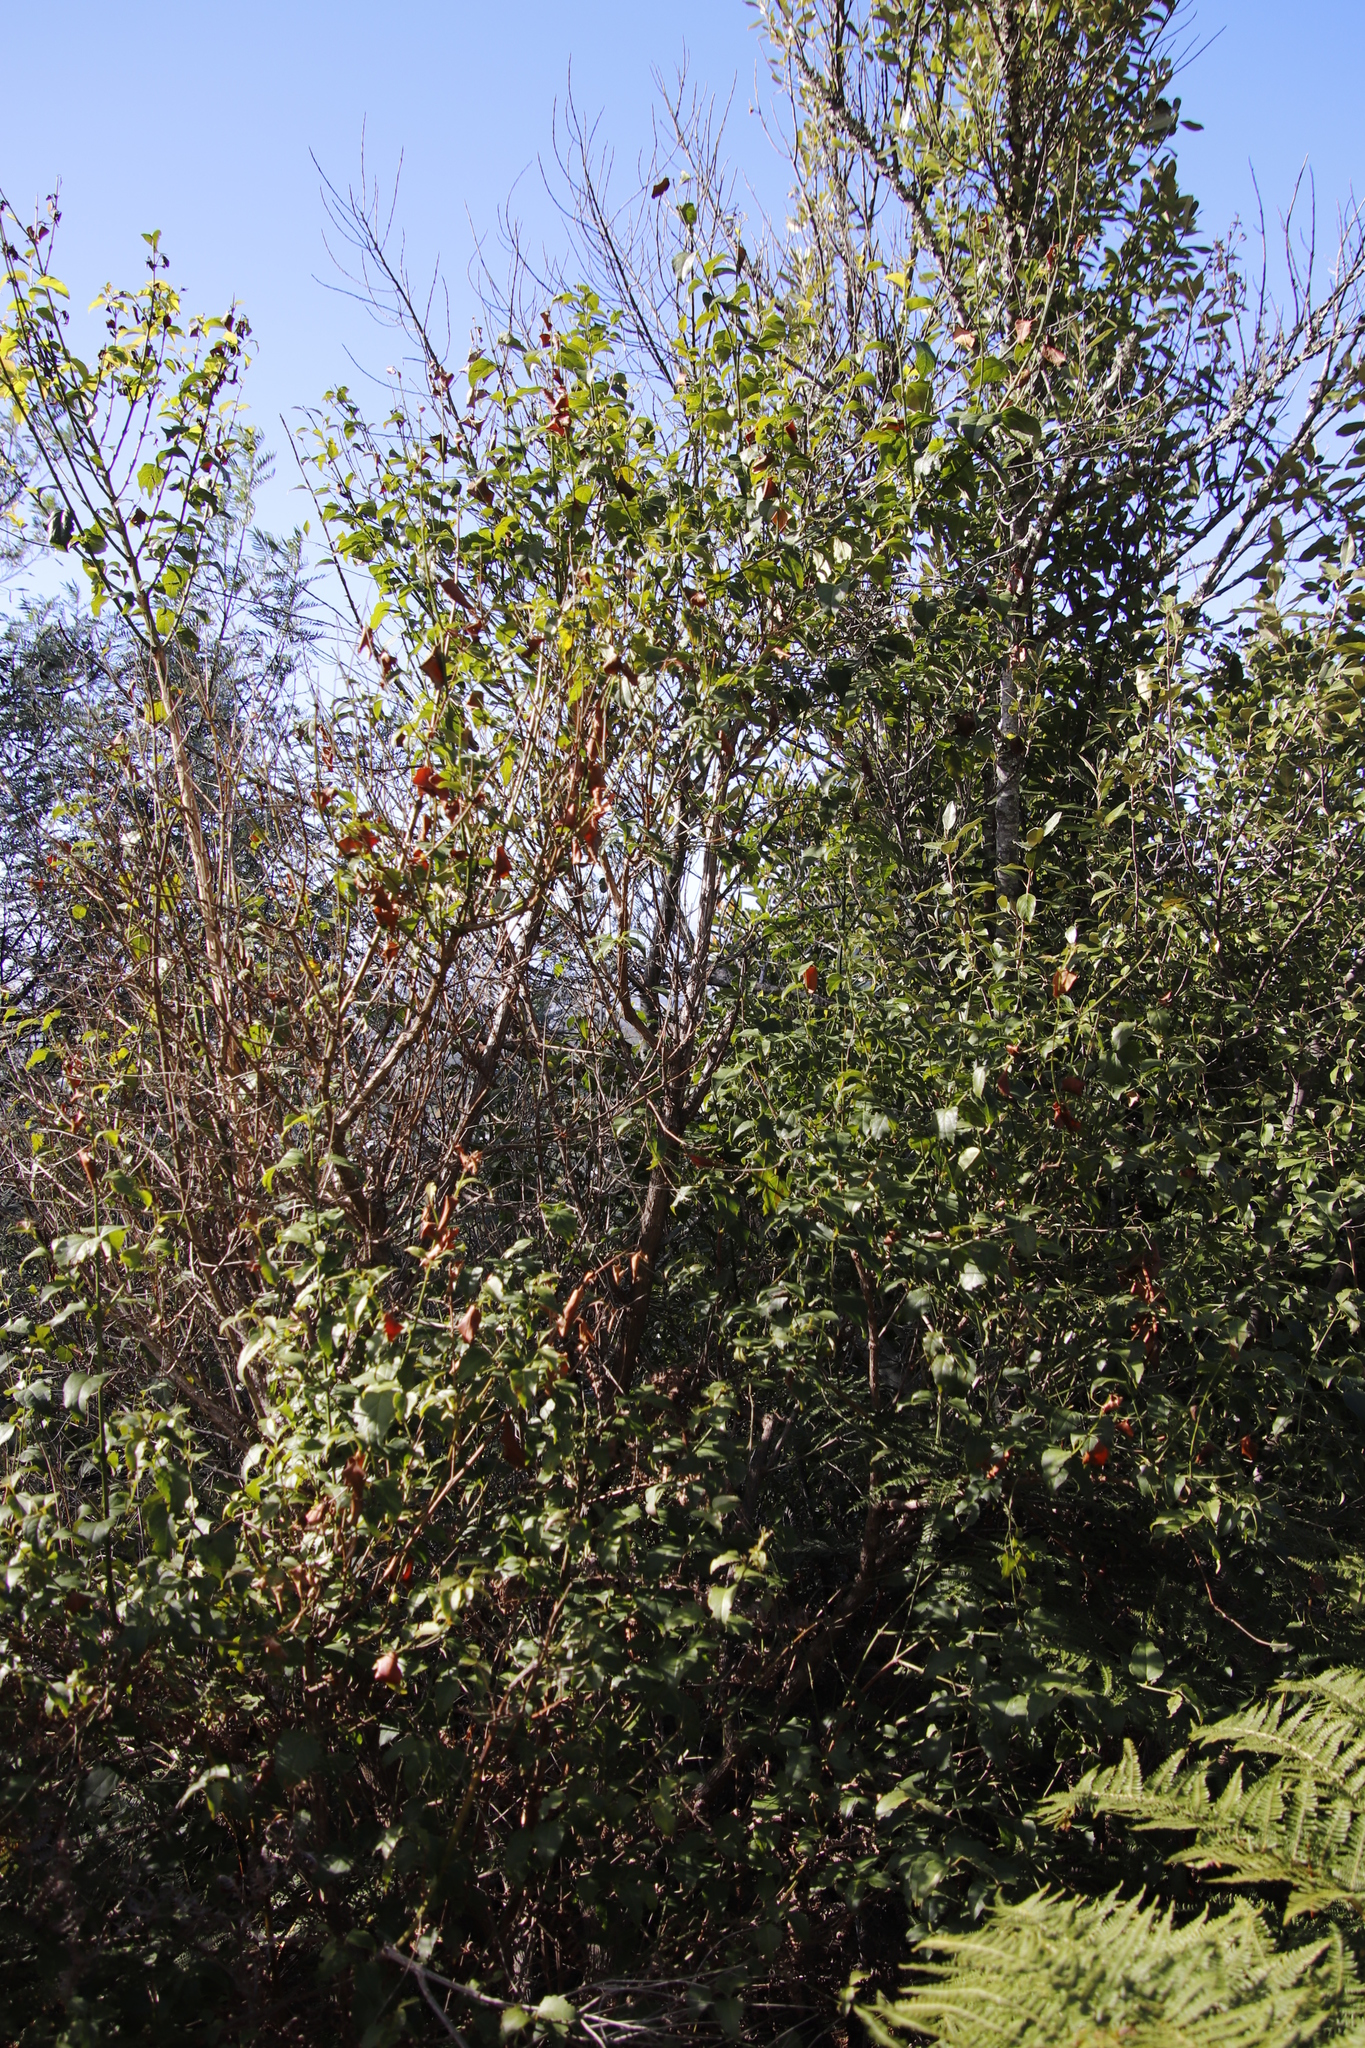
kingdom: Plantae
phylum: Tracheophyta
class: Magnoliopsida
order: Lamiales
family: Stilbaceae
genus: Halleria
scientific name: Halleria lucida
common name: Tree fuschia
